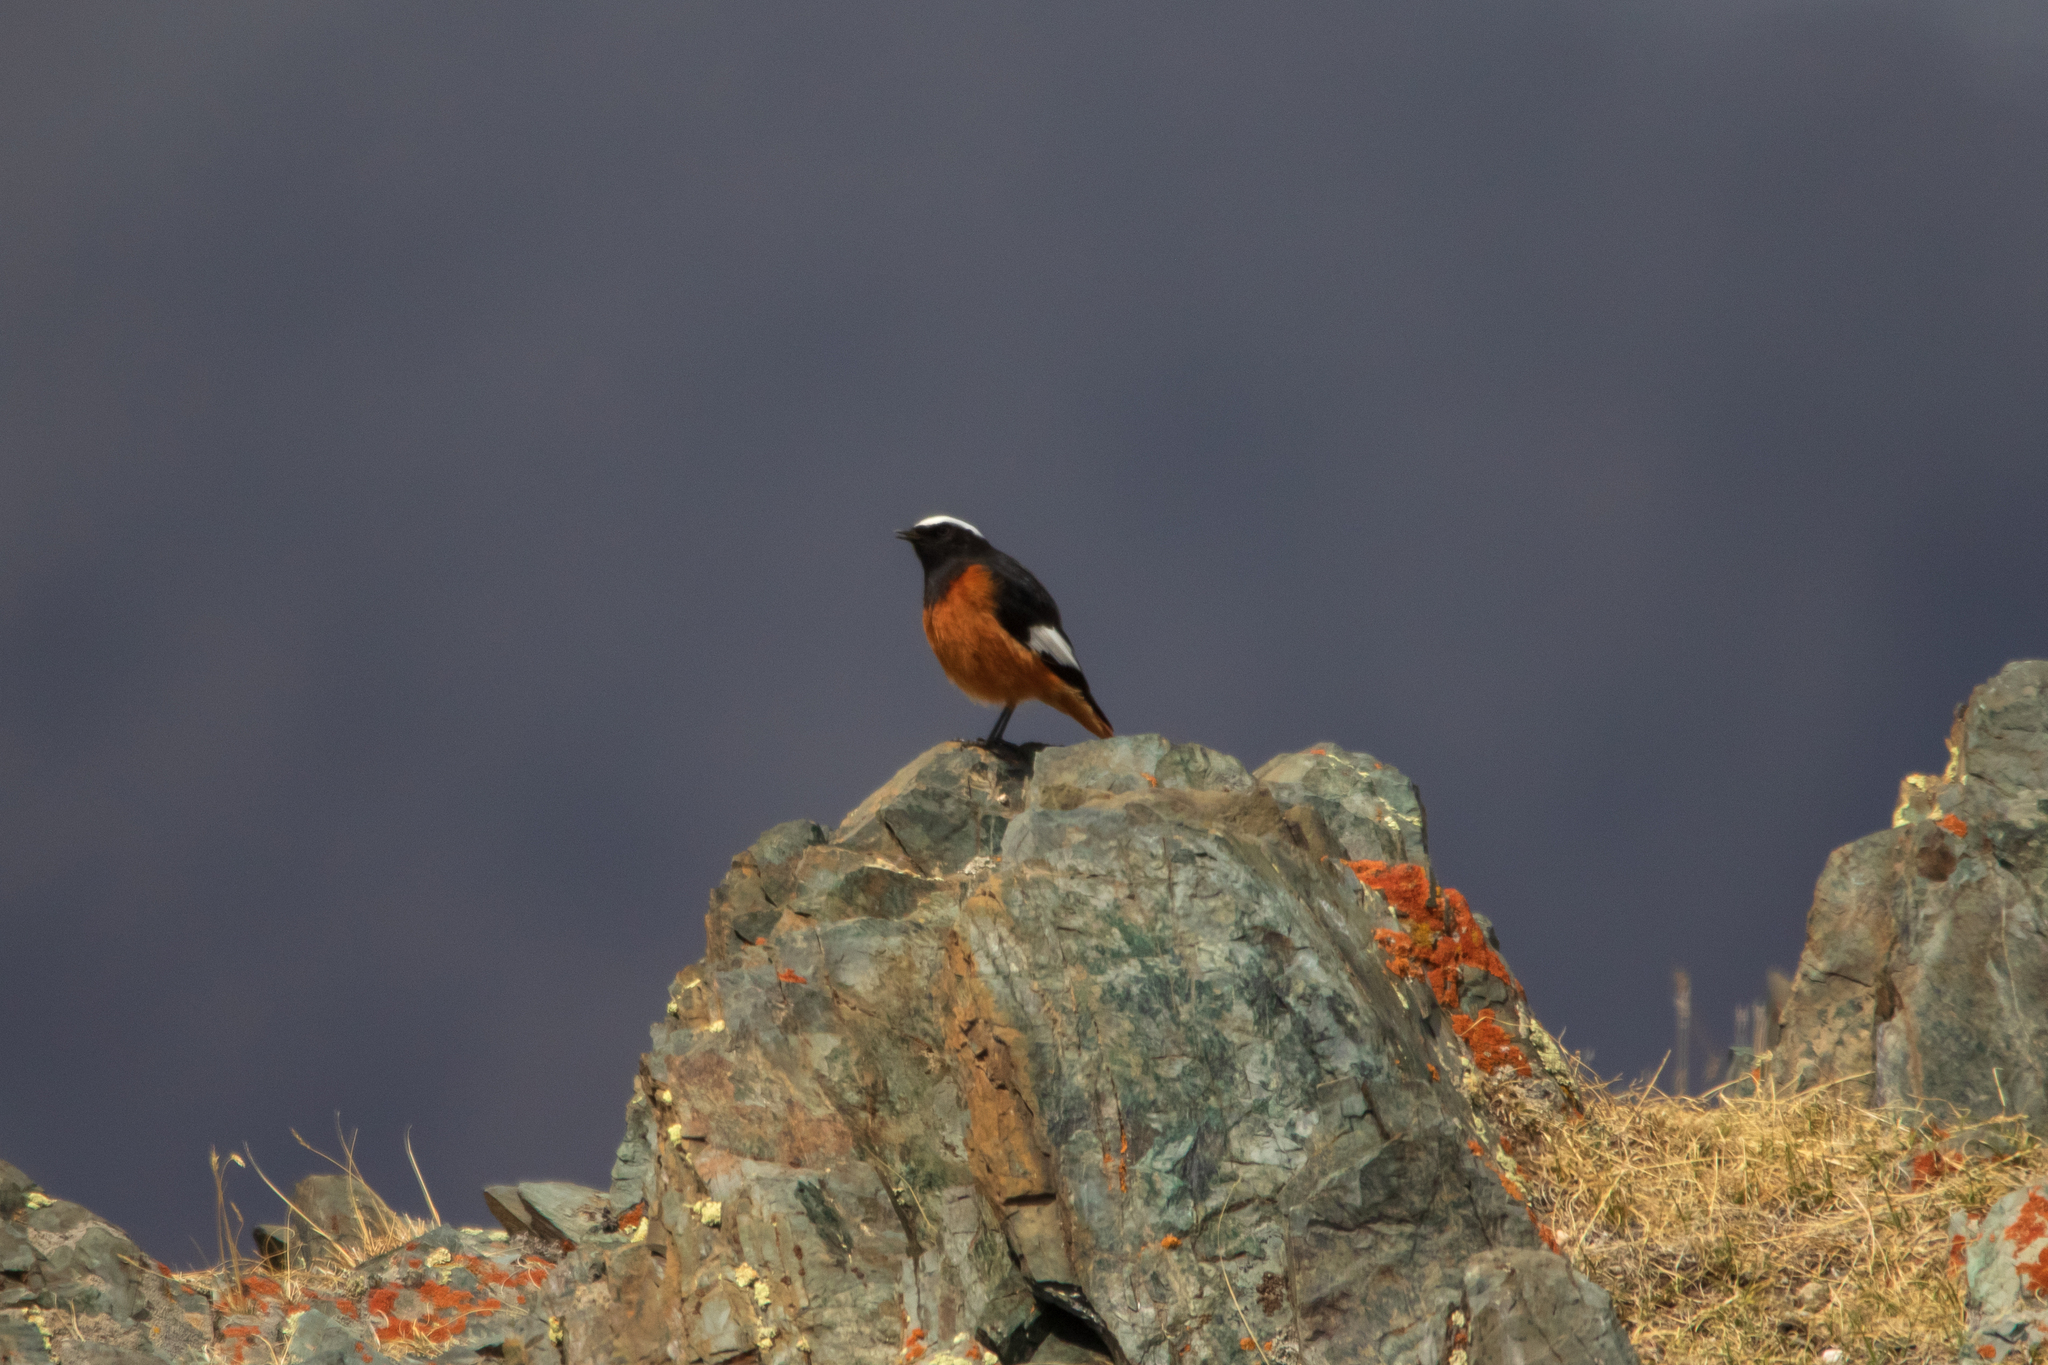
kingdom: Animalia
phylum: Chordata
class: Aves
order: Passeriformes
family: Muscicapidae
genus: Phoenicurus
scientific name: Phoenicurus erythrogastrus
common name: Güldenstädt's redstart
